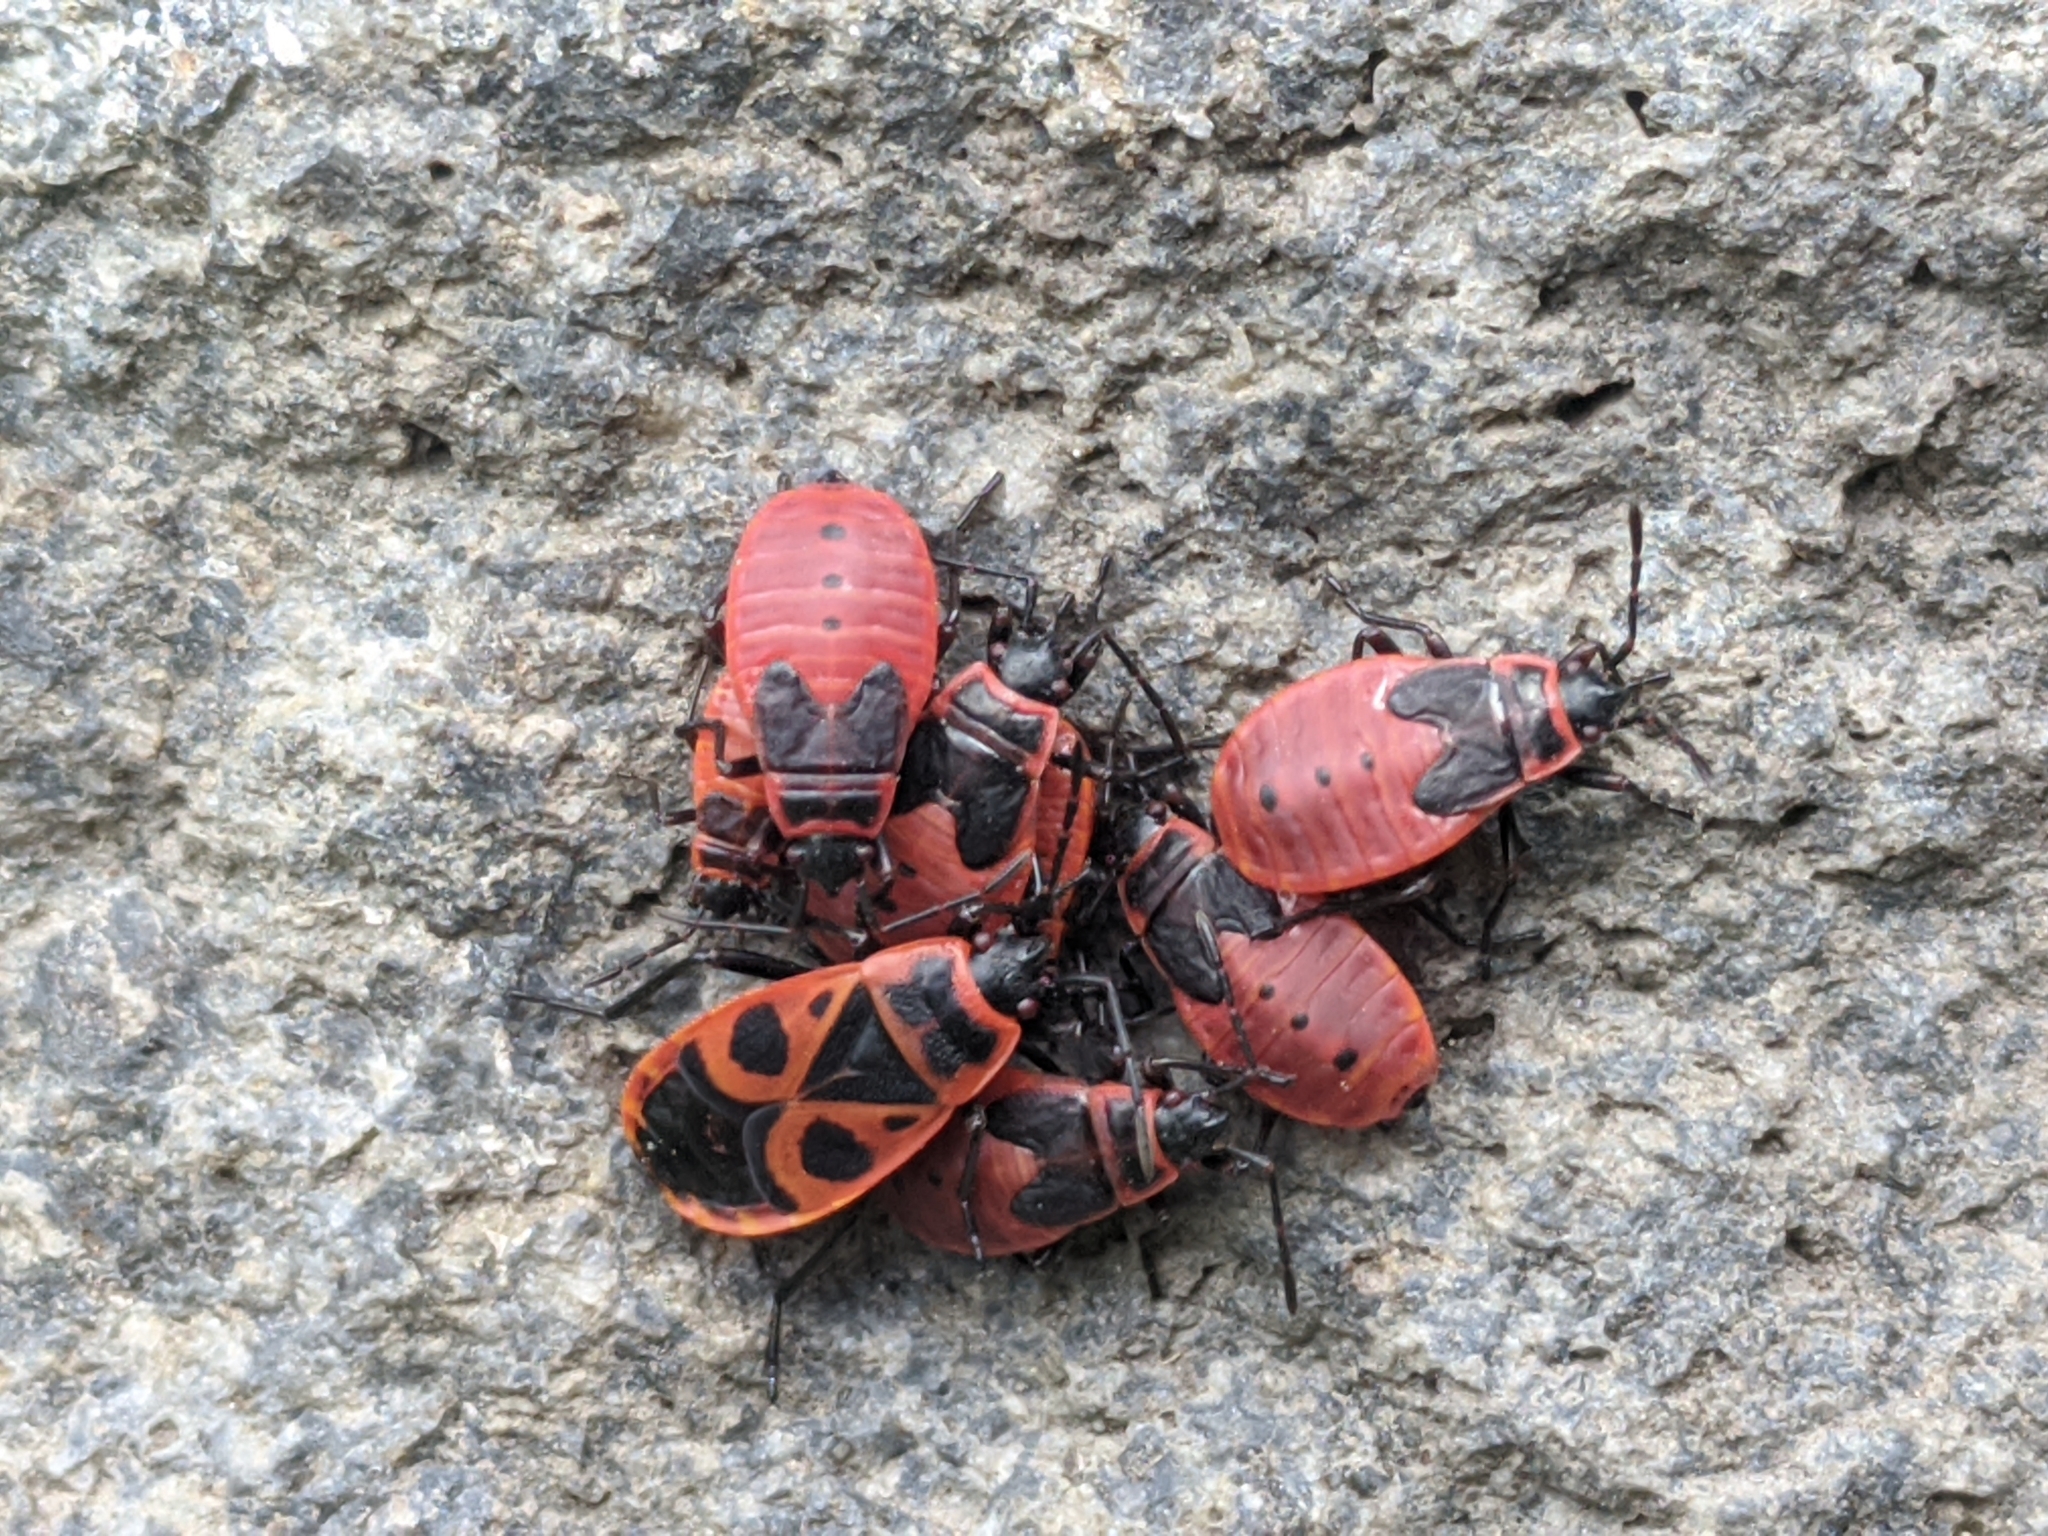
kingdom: Animalia
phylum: Arthropoda
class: Insecta
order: Hemiptera
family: Pyrrhocoridae
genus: Pyrrhocoris
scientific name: Pyrrhocoris apterus
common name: Firebug
